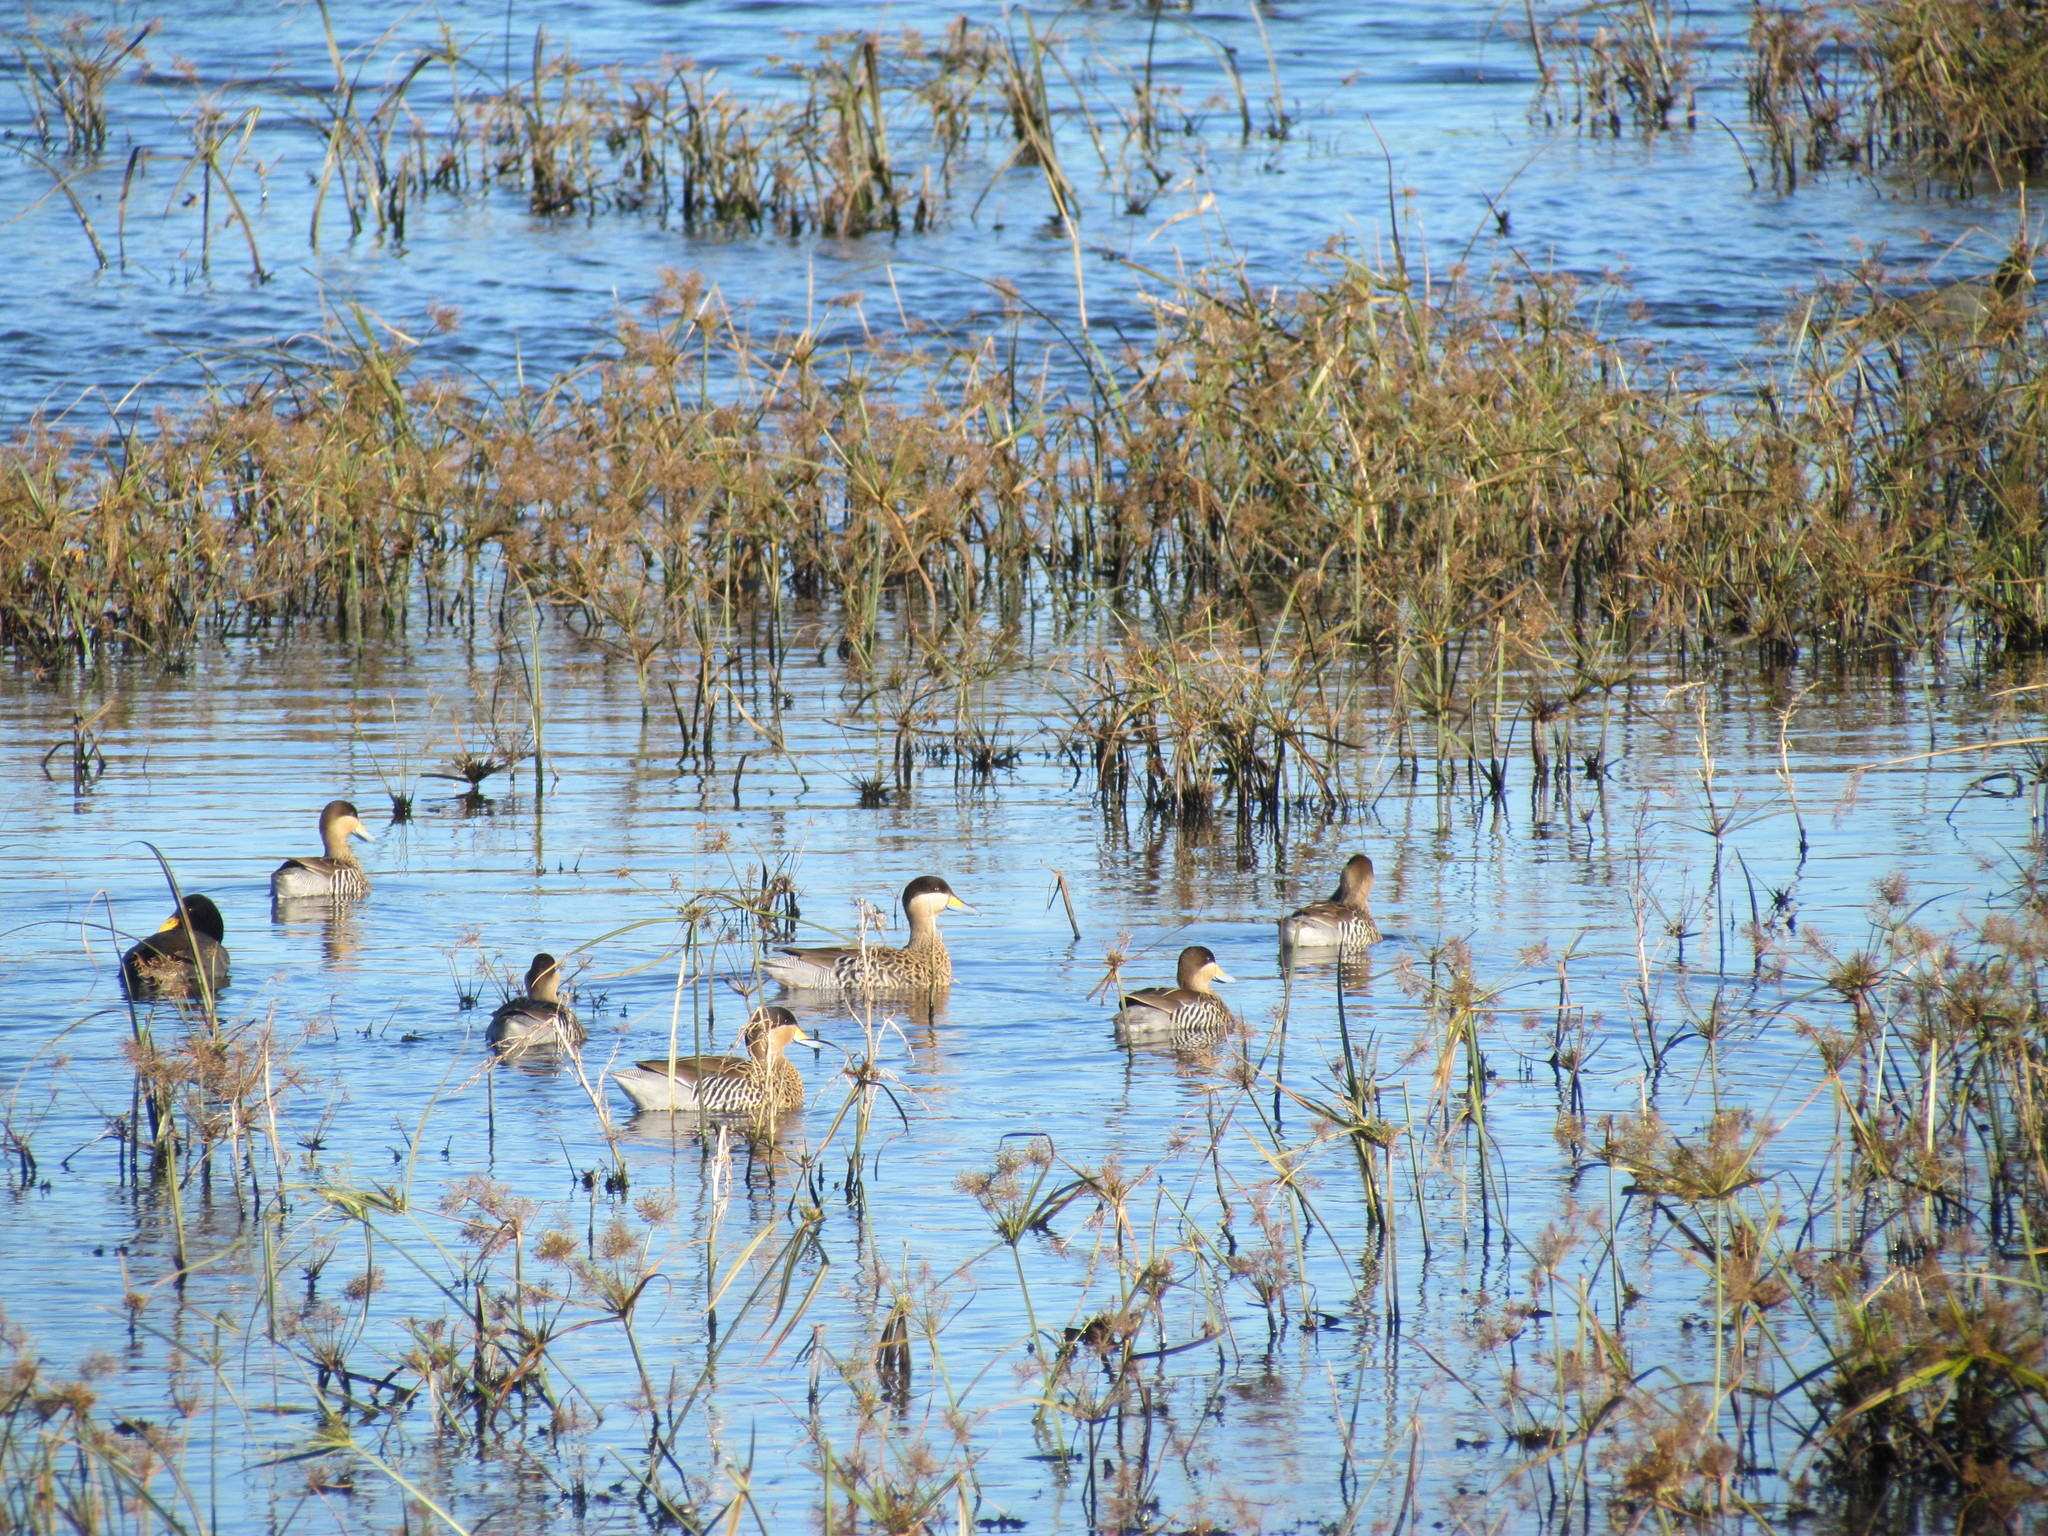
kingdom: Animalia
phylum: Chordata
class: Aves
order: Anseriformes
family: Anatidae
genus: Spatula
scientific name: Spatula versicolor
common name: Silver teal
